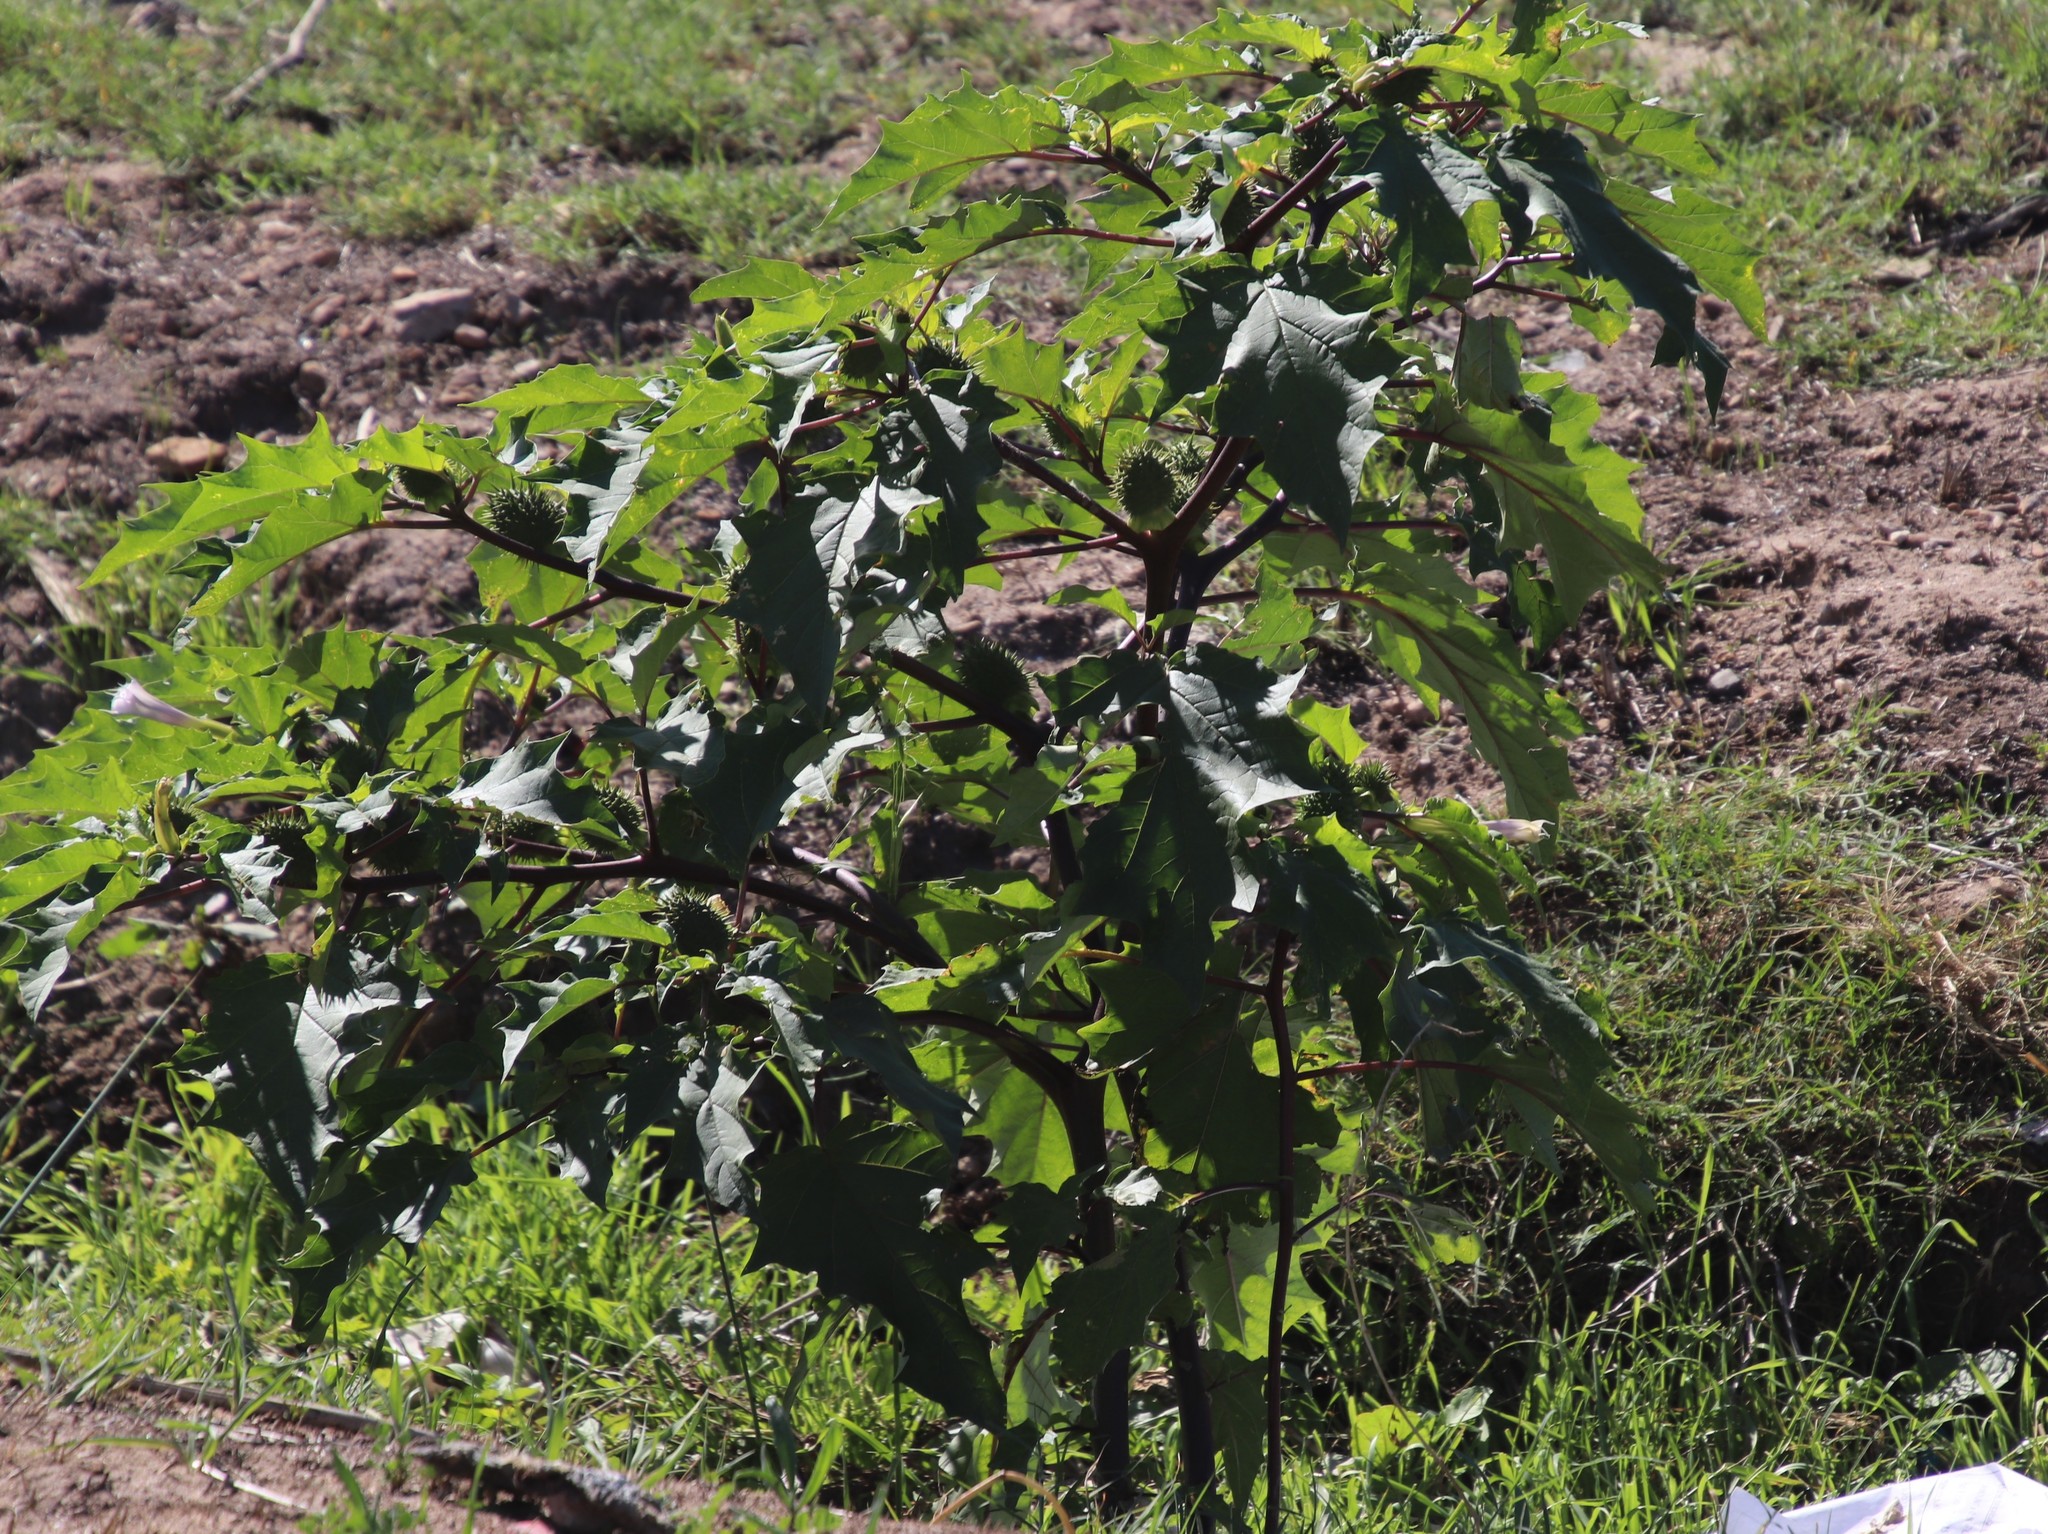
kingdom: Plantae
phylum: Tracheophyta
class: Magnoliopsida
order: Solanales
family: Solanaceae
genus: Datura
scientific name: Datura stramonium
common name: Thorn-apple
